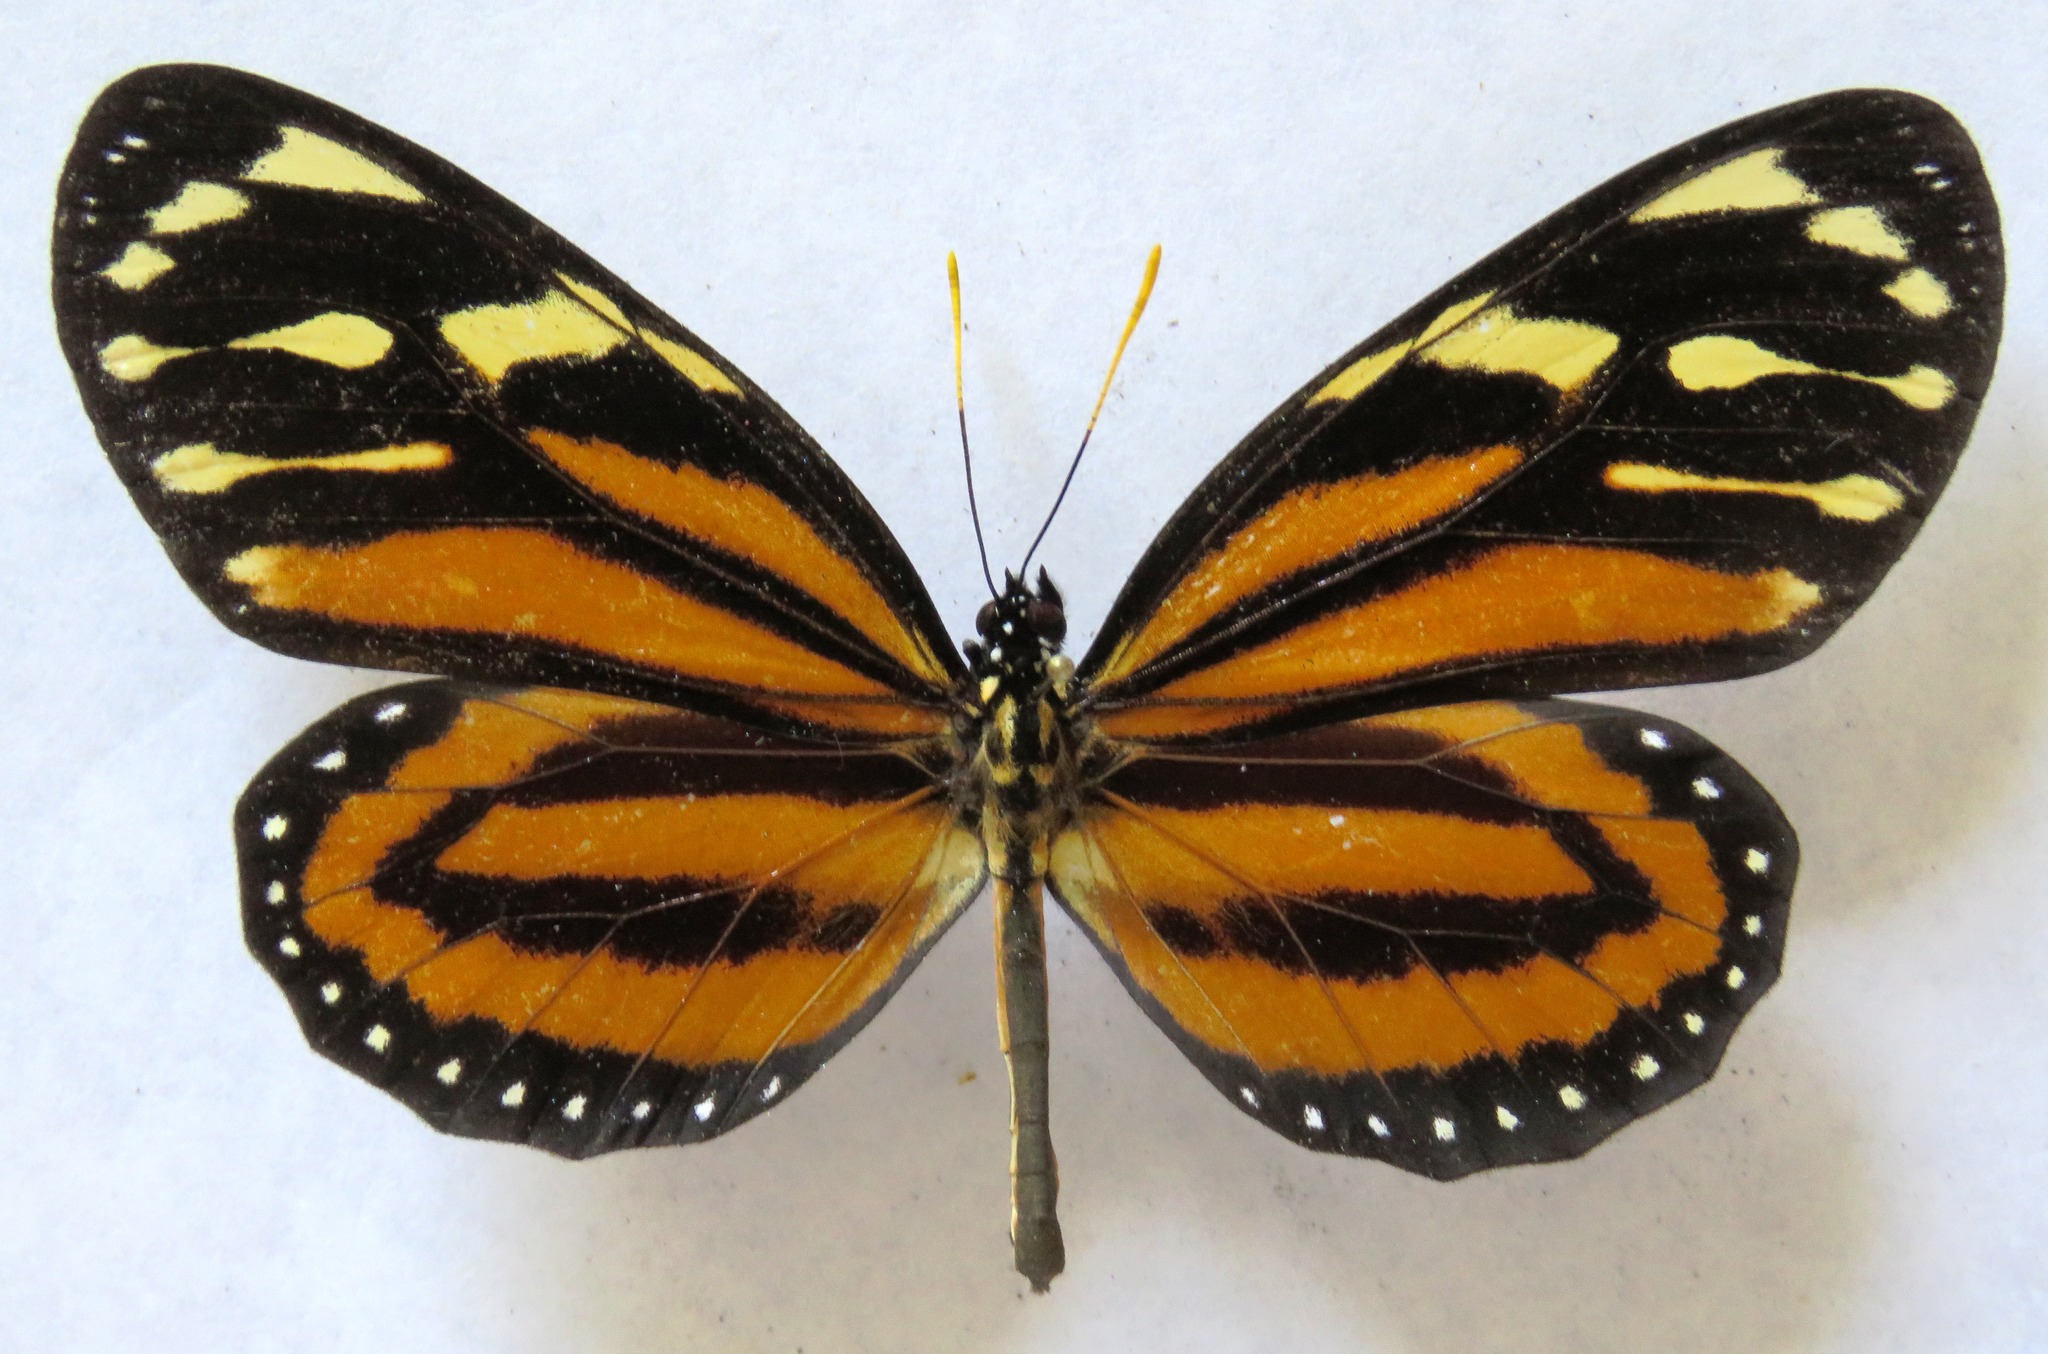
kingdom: Animalia
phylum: Arthropoda
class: Insecta
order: Lepidoptera
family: Nymphalidae
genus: Lycorea
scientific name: Lycorea cleobaea
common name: Tiger mimic-queen
